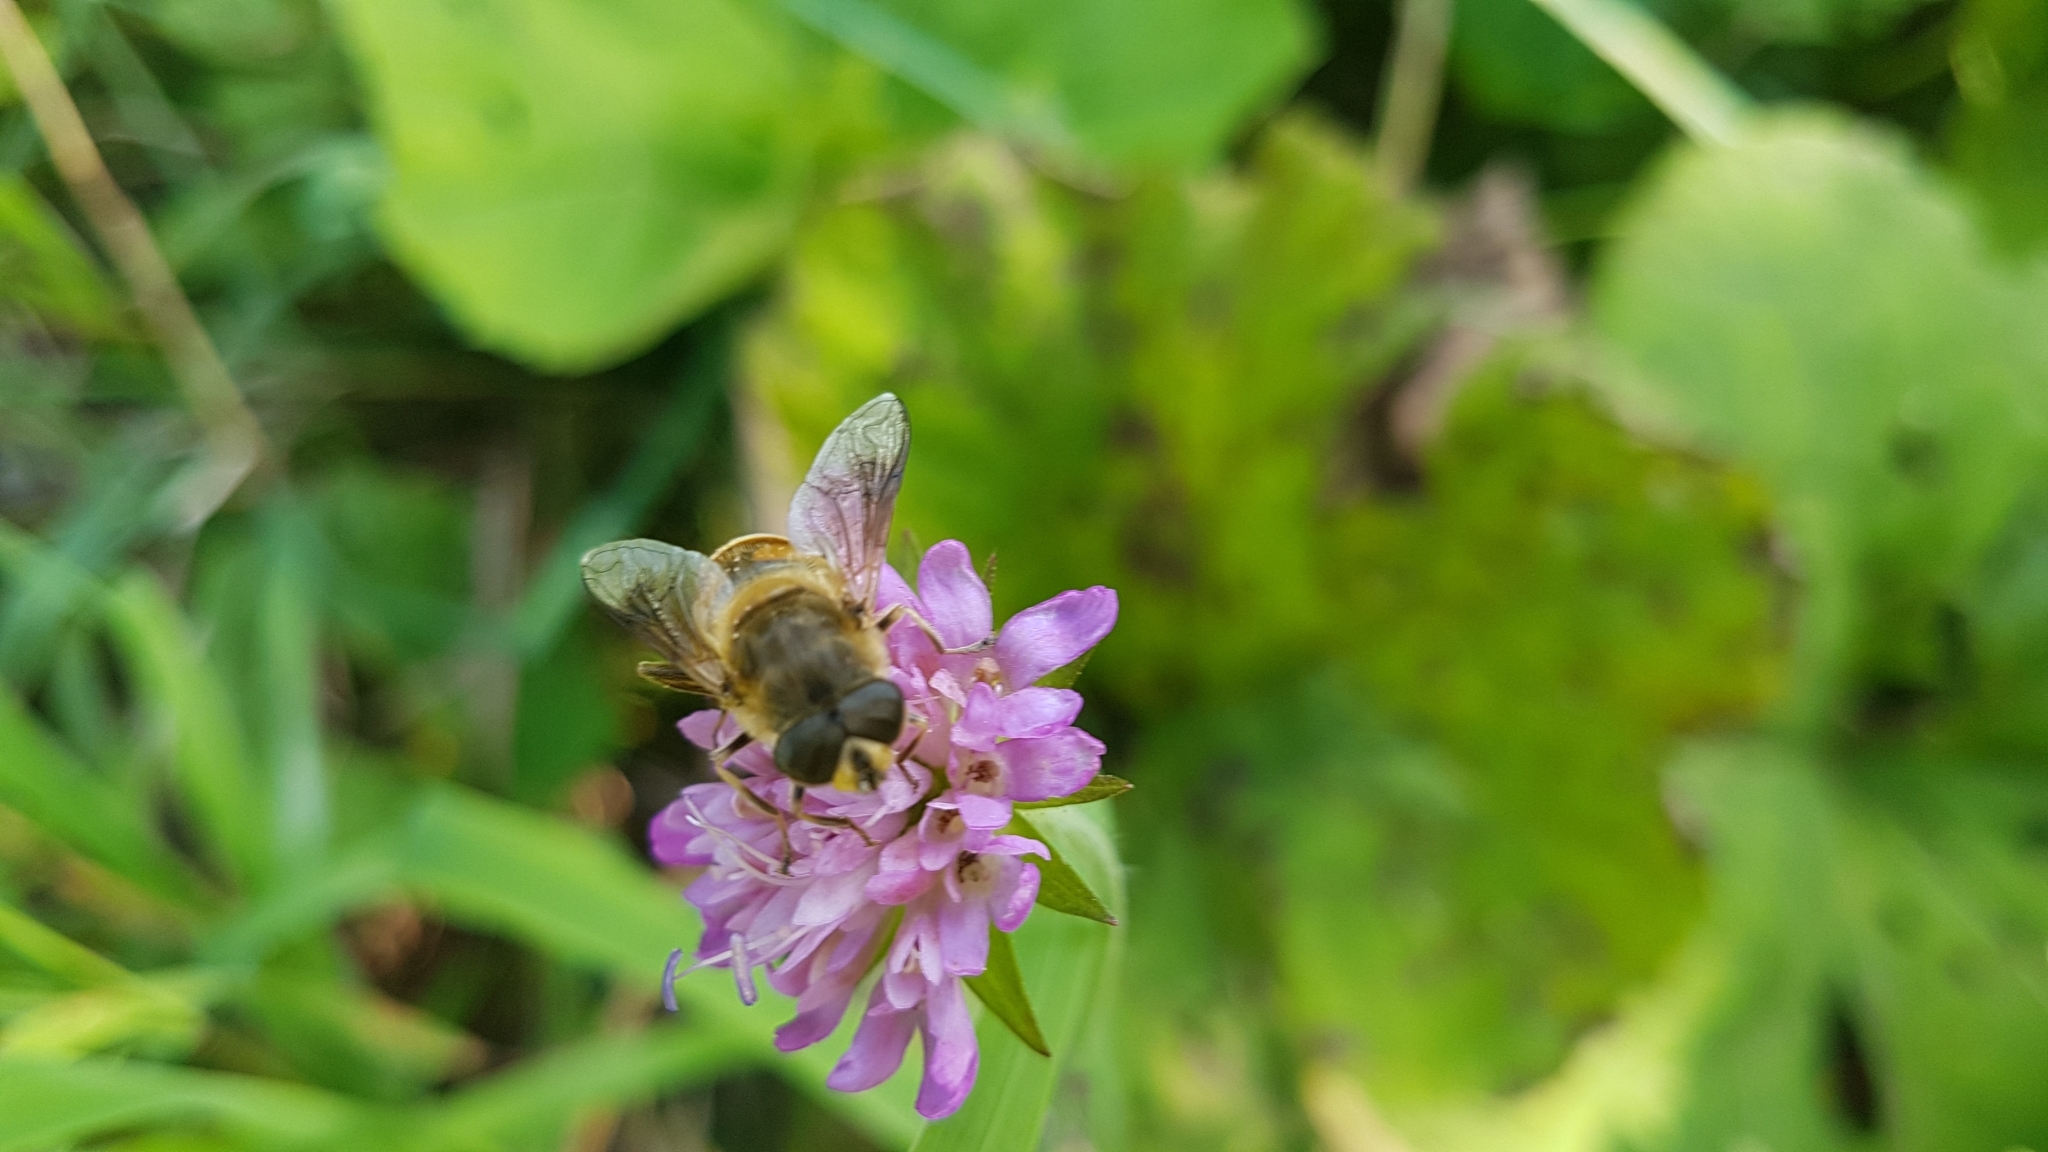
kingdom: Animalia
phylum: Arthropoda
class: Insecta
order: Diptera
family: Syrphidae
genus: Eristalis
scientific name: Eristalis tenax
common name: Drone fly
